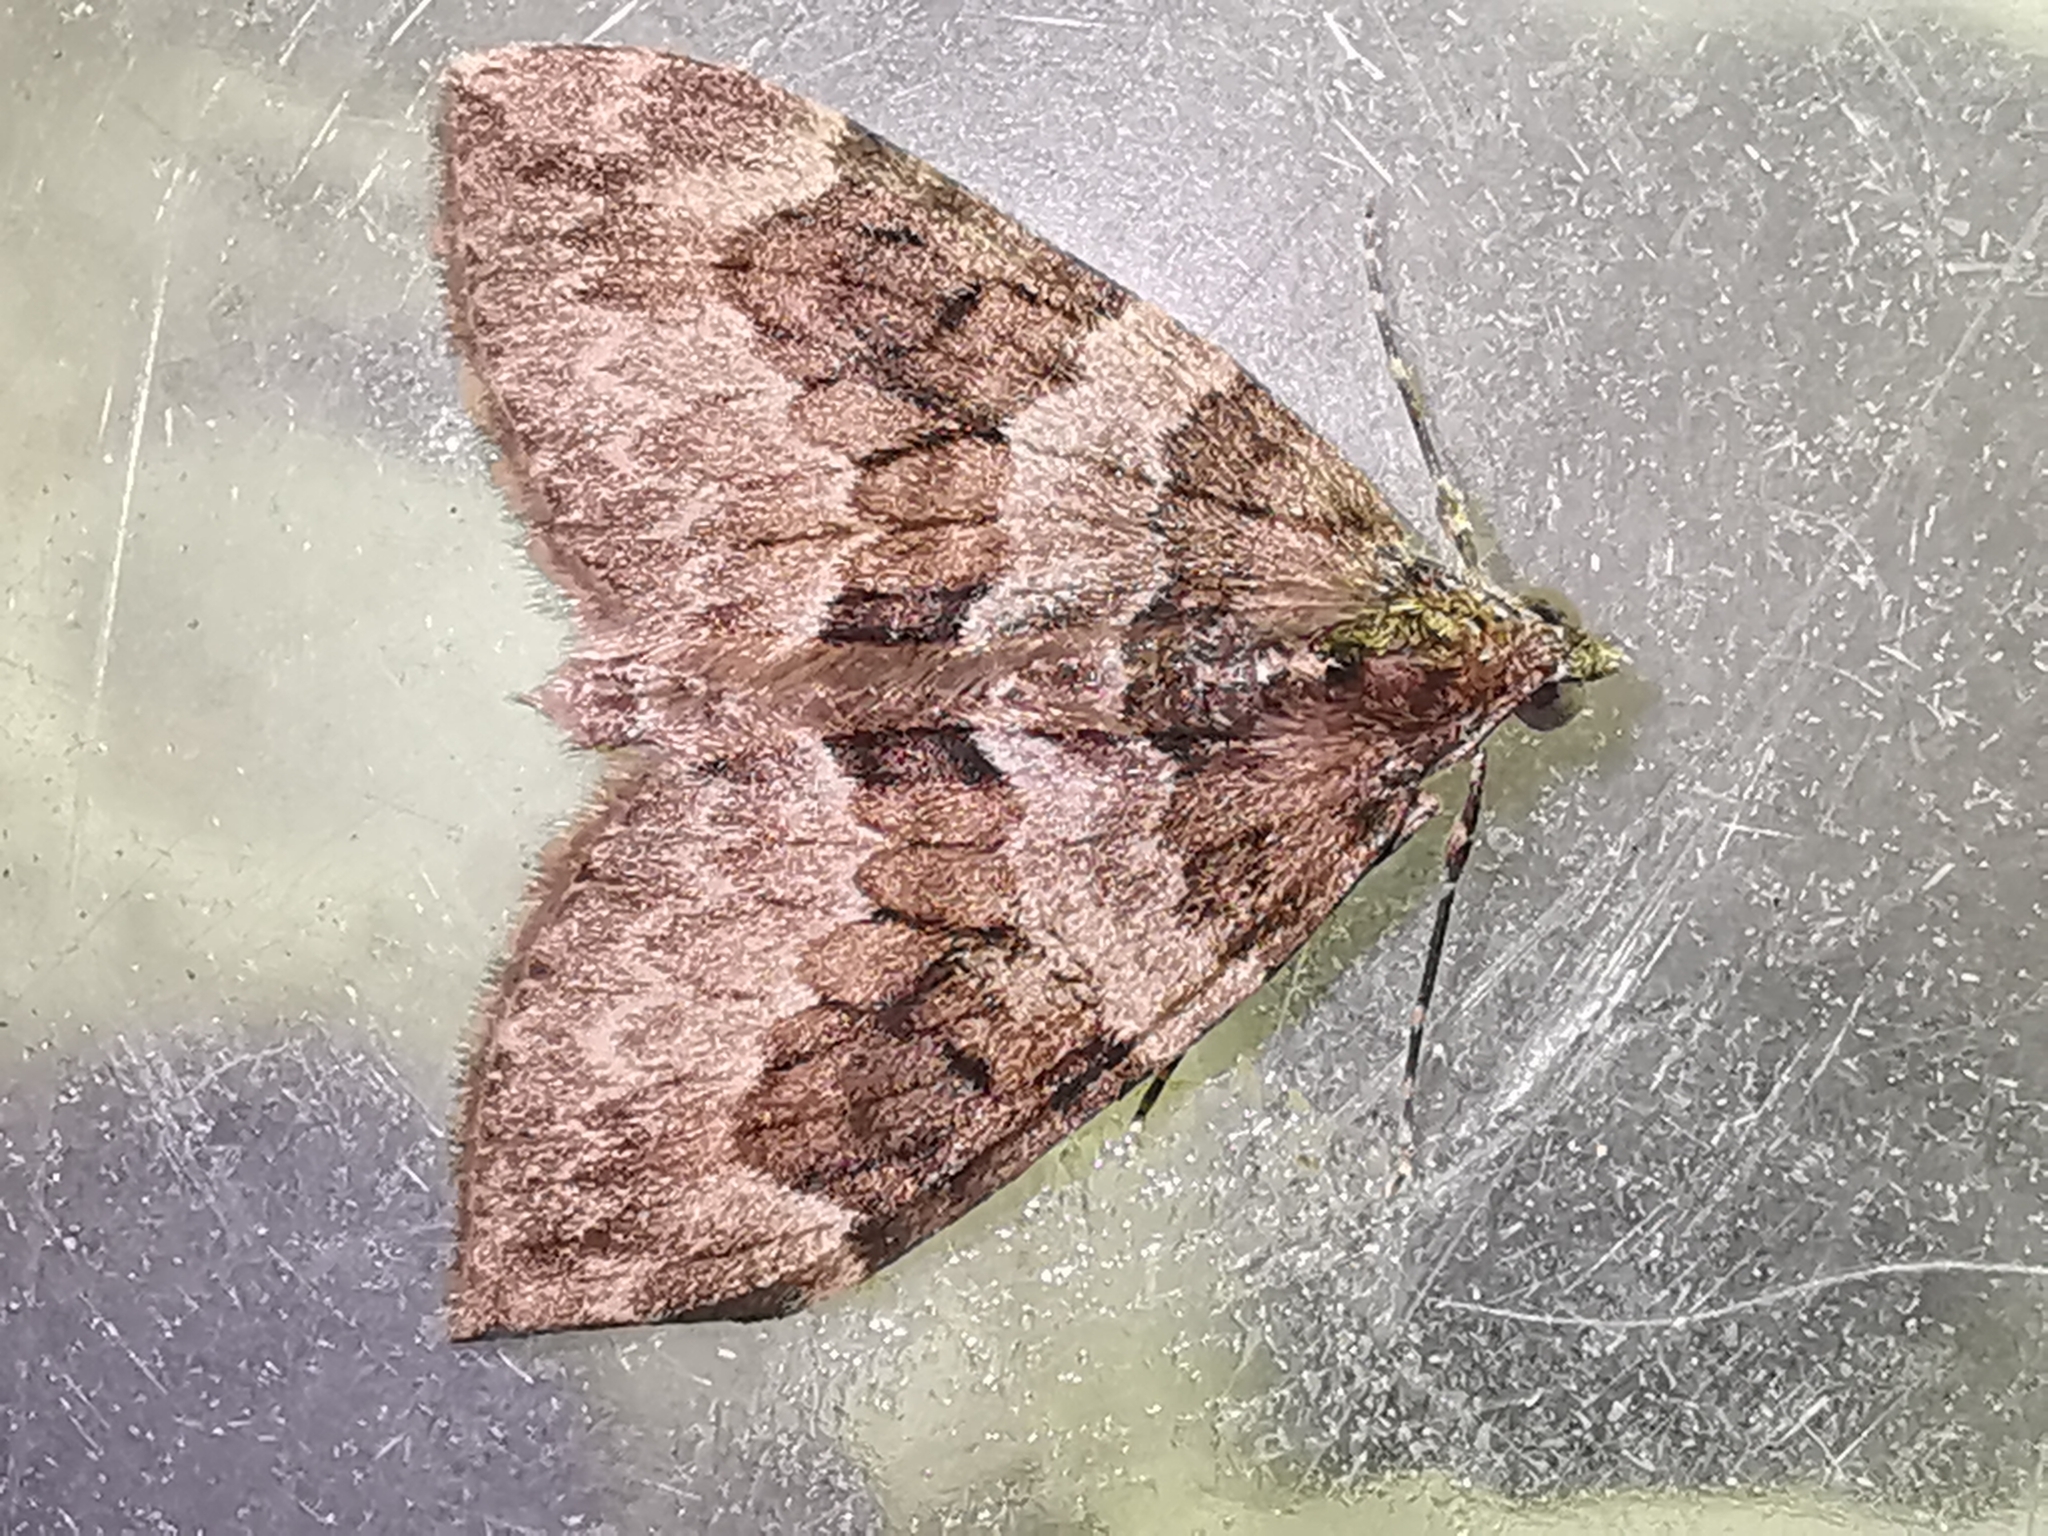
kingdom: Animalia
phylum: Arthropoda
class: Insecta
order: Lepidoptera
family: Geometridae
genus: Thera
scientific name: Thera britannica
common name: Spruce carpet
